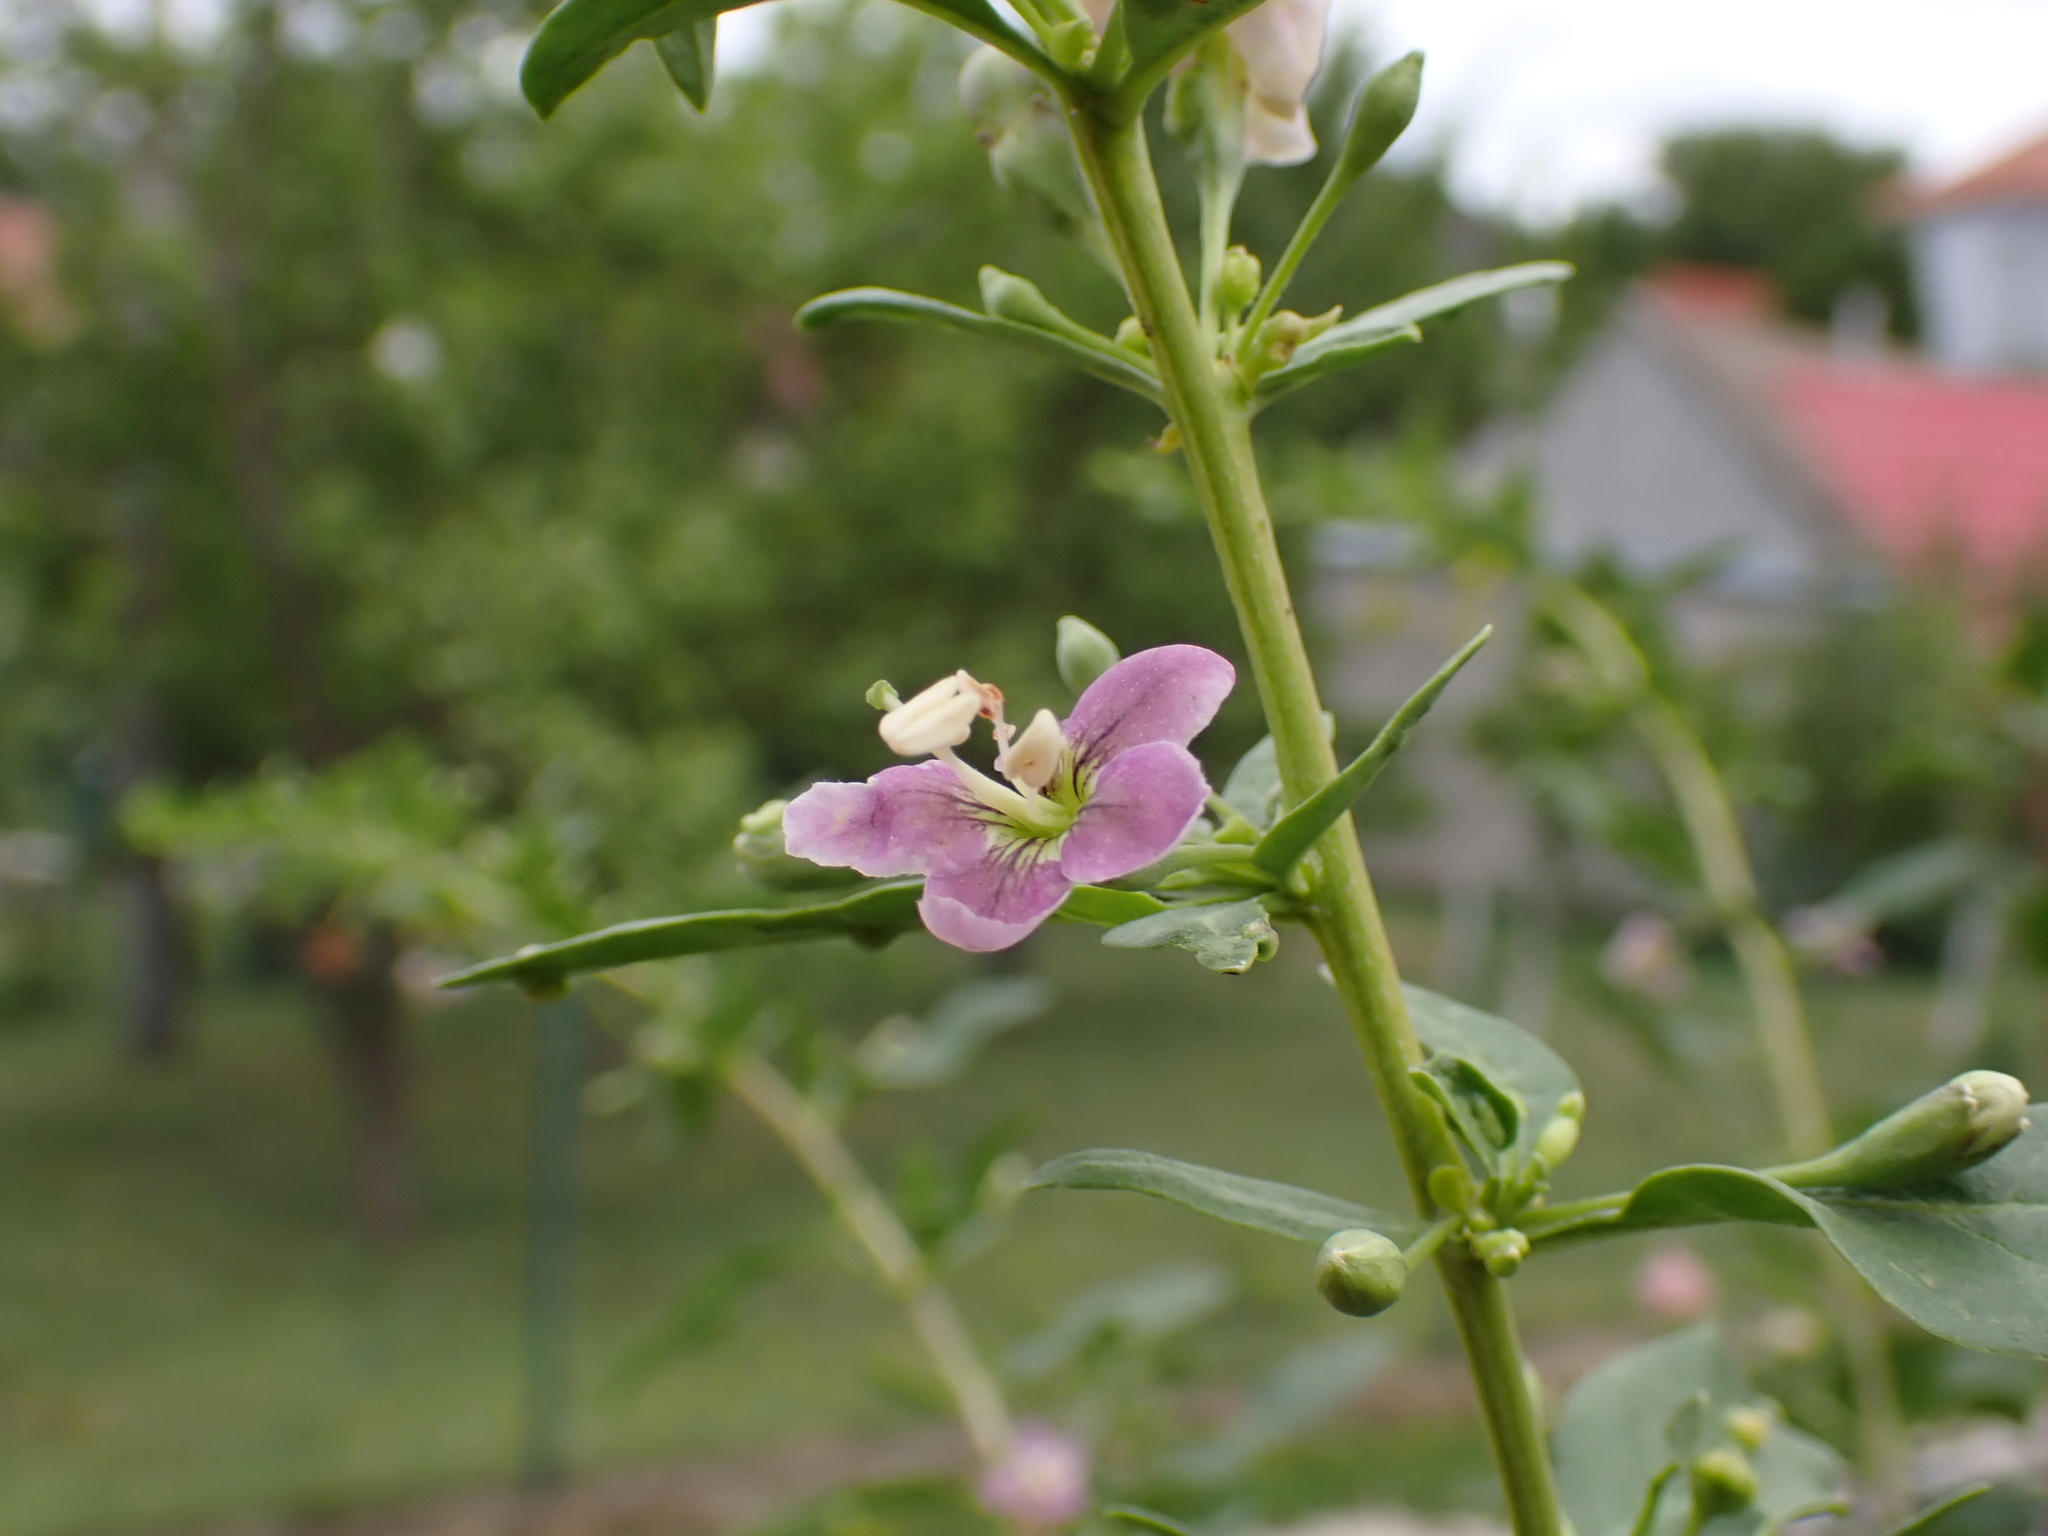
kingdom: Plantae
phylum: Tracheophyta
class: Magnoliopsida
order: Solanales
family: Solanaceae
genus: Lycium
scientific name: Lycium barbarum
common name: Duke of argyll's teaplant
